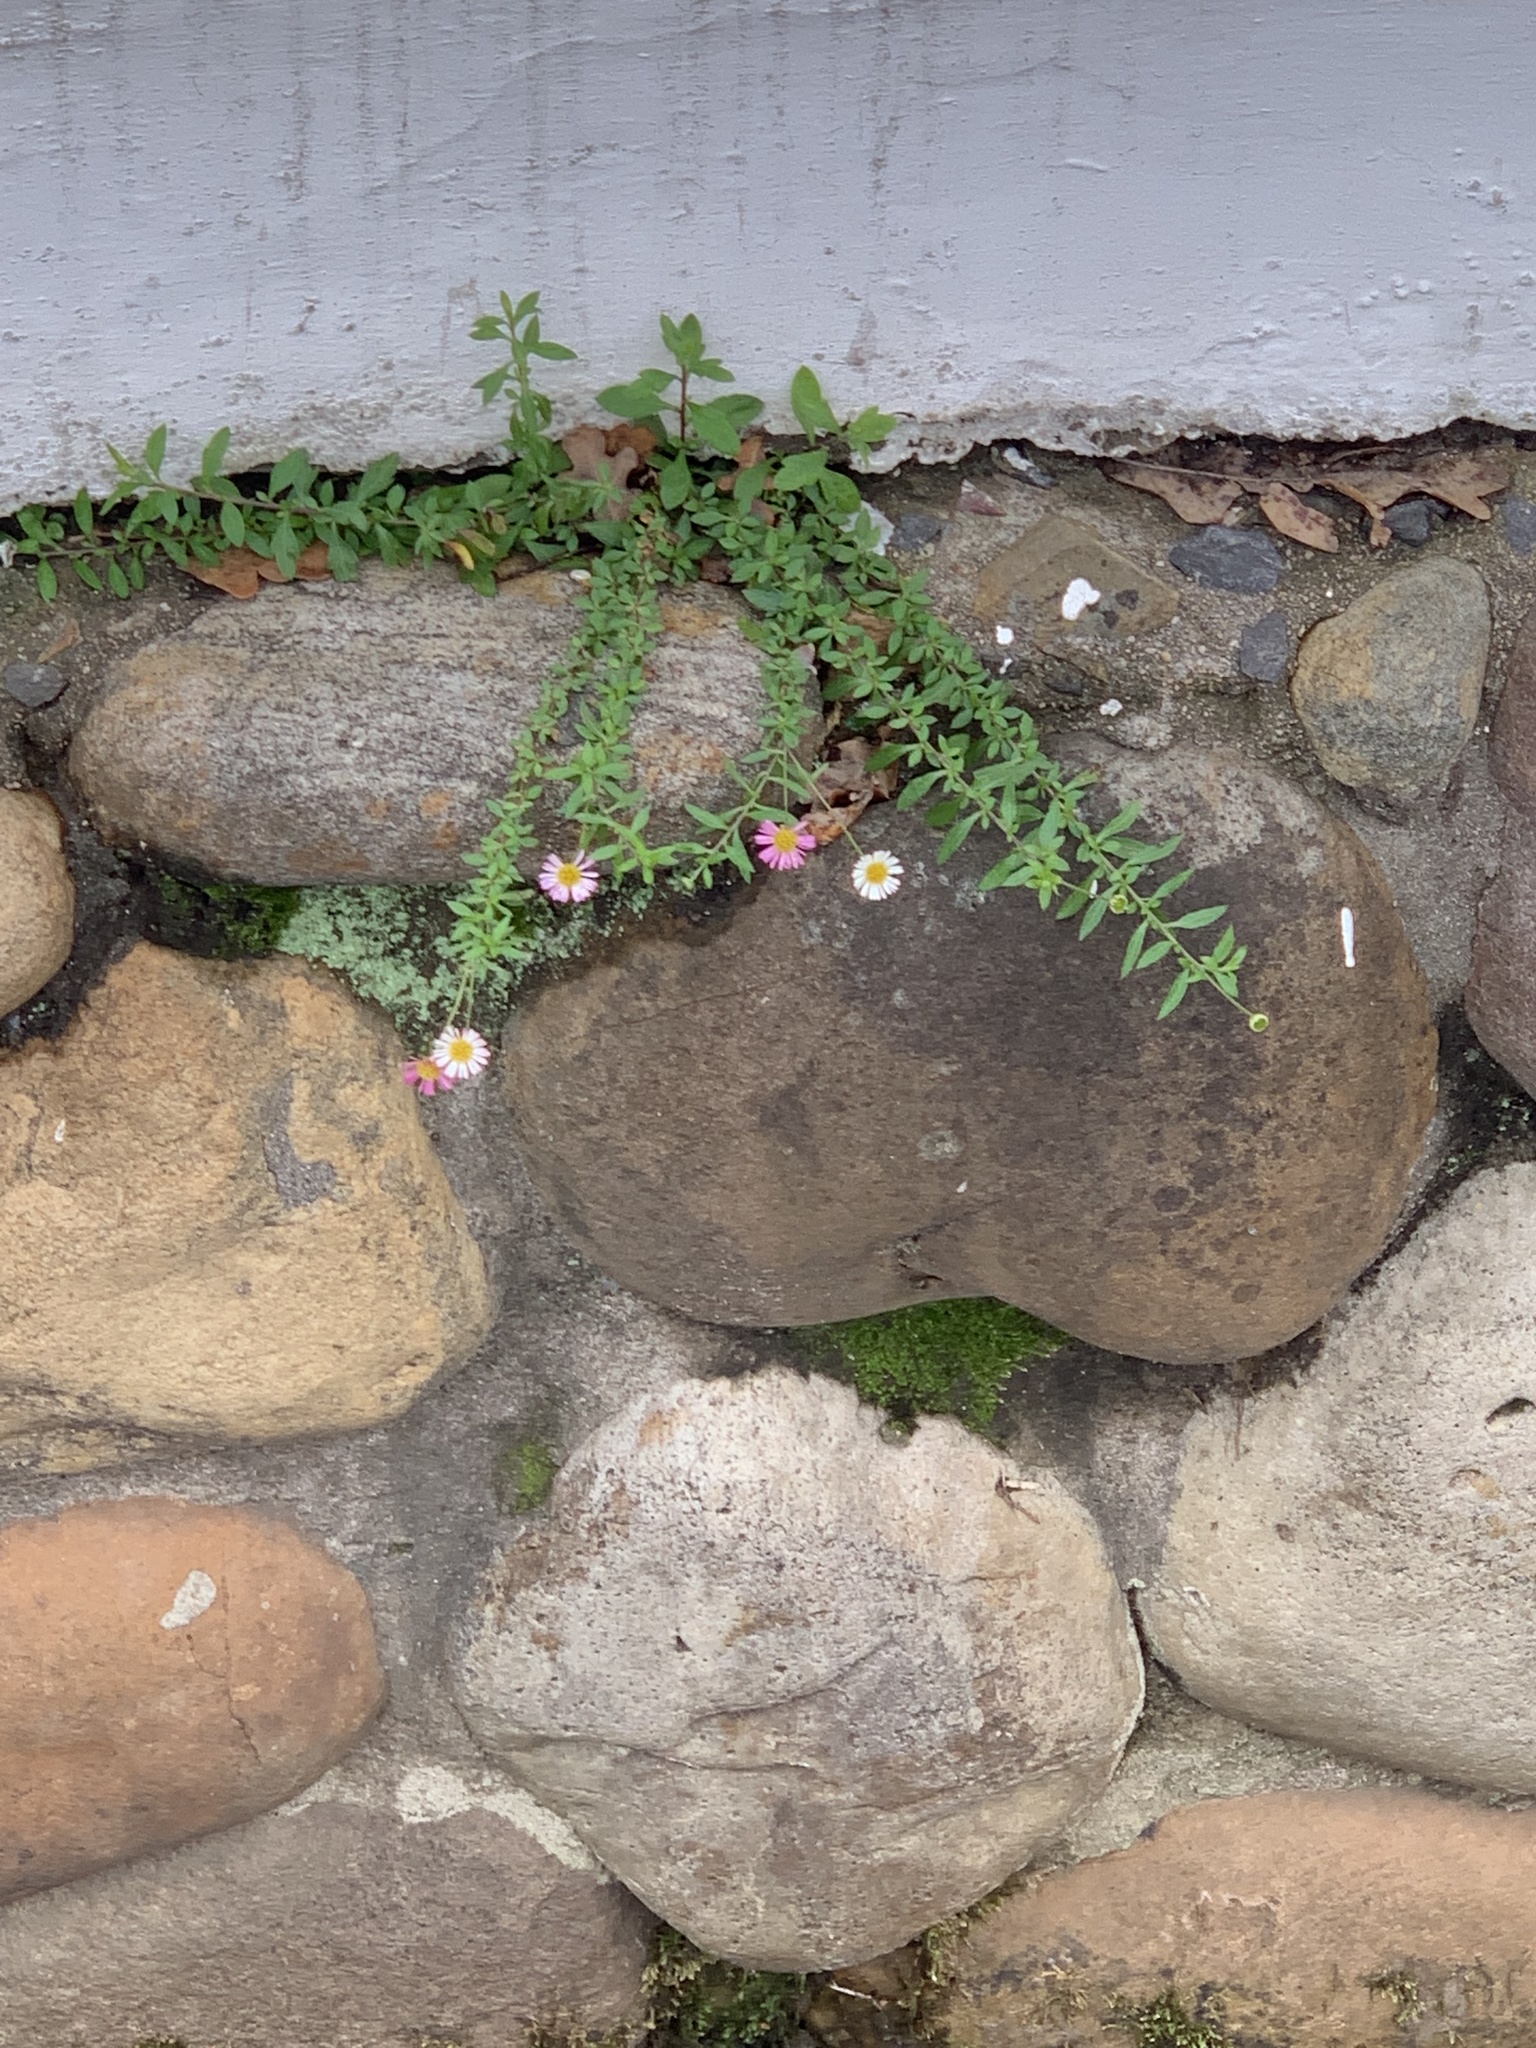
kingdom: Plantae
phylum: Tracheophyta
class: Magnoliopsida
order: Asterales
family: Asteraceae
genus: Erigeron
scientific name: Erigeron karvinskianus
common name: Mexican fleabane
